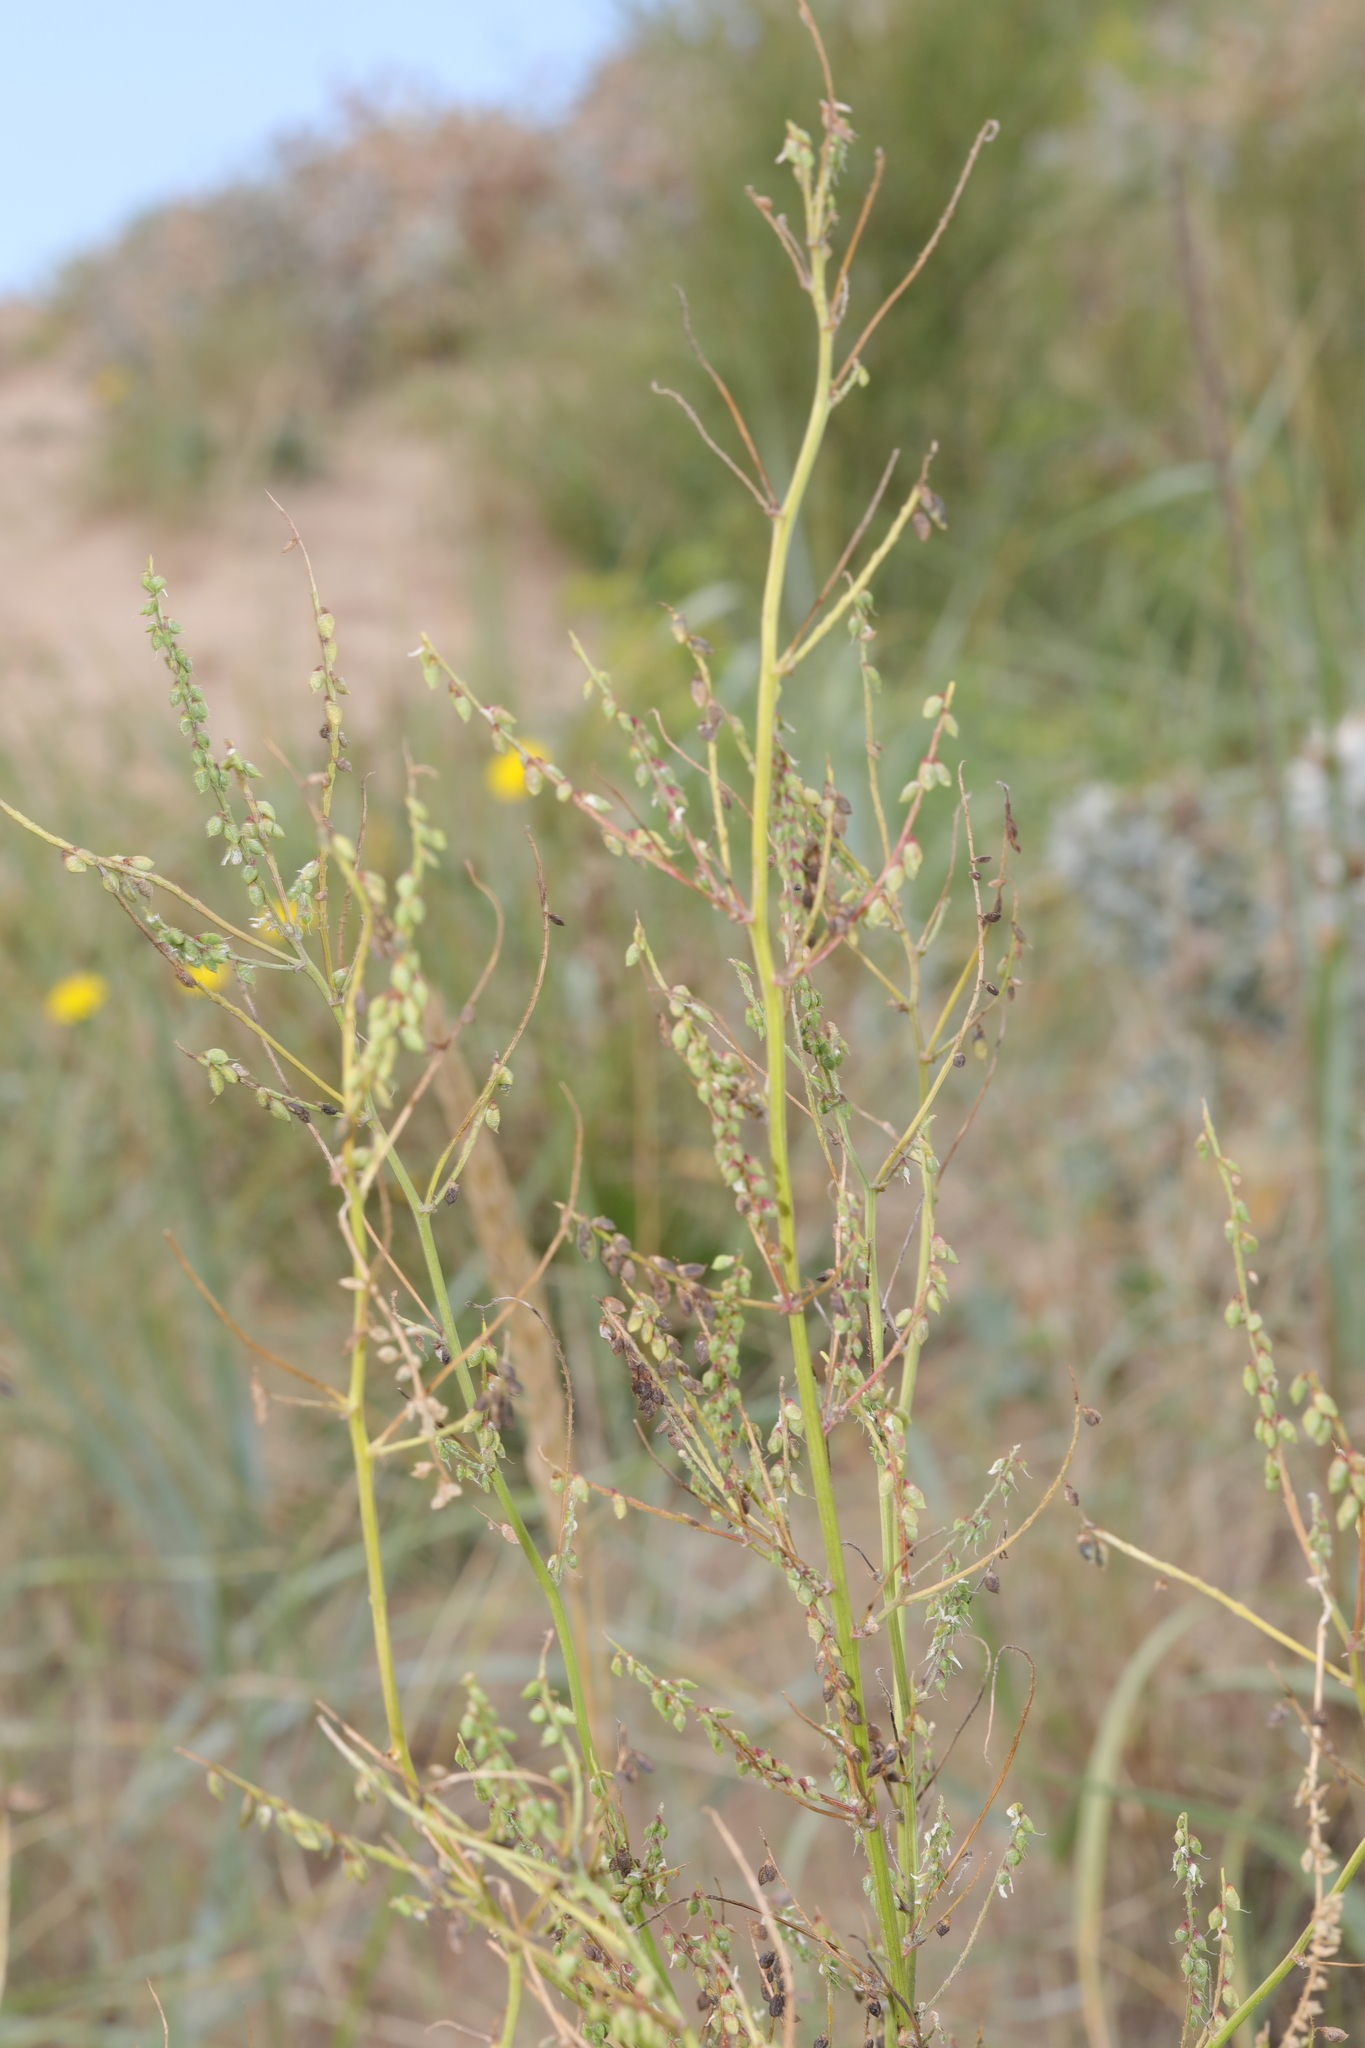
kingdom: Plantae
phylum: Tracheophyta
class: Magnoliopsida
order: Fabales
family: Fabaceae
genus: Melilotus
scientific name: Melilotus albus
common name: White melilot
